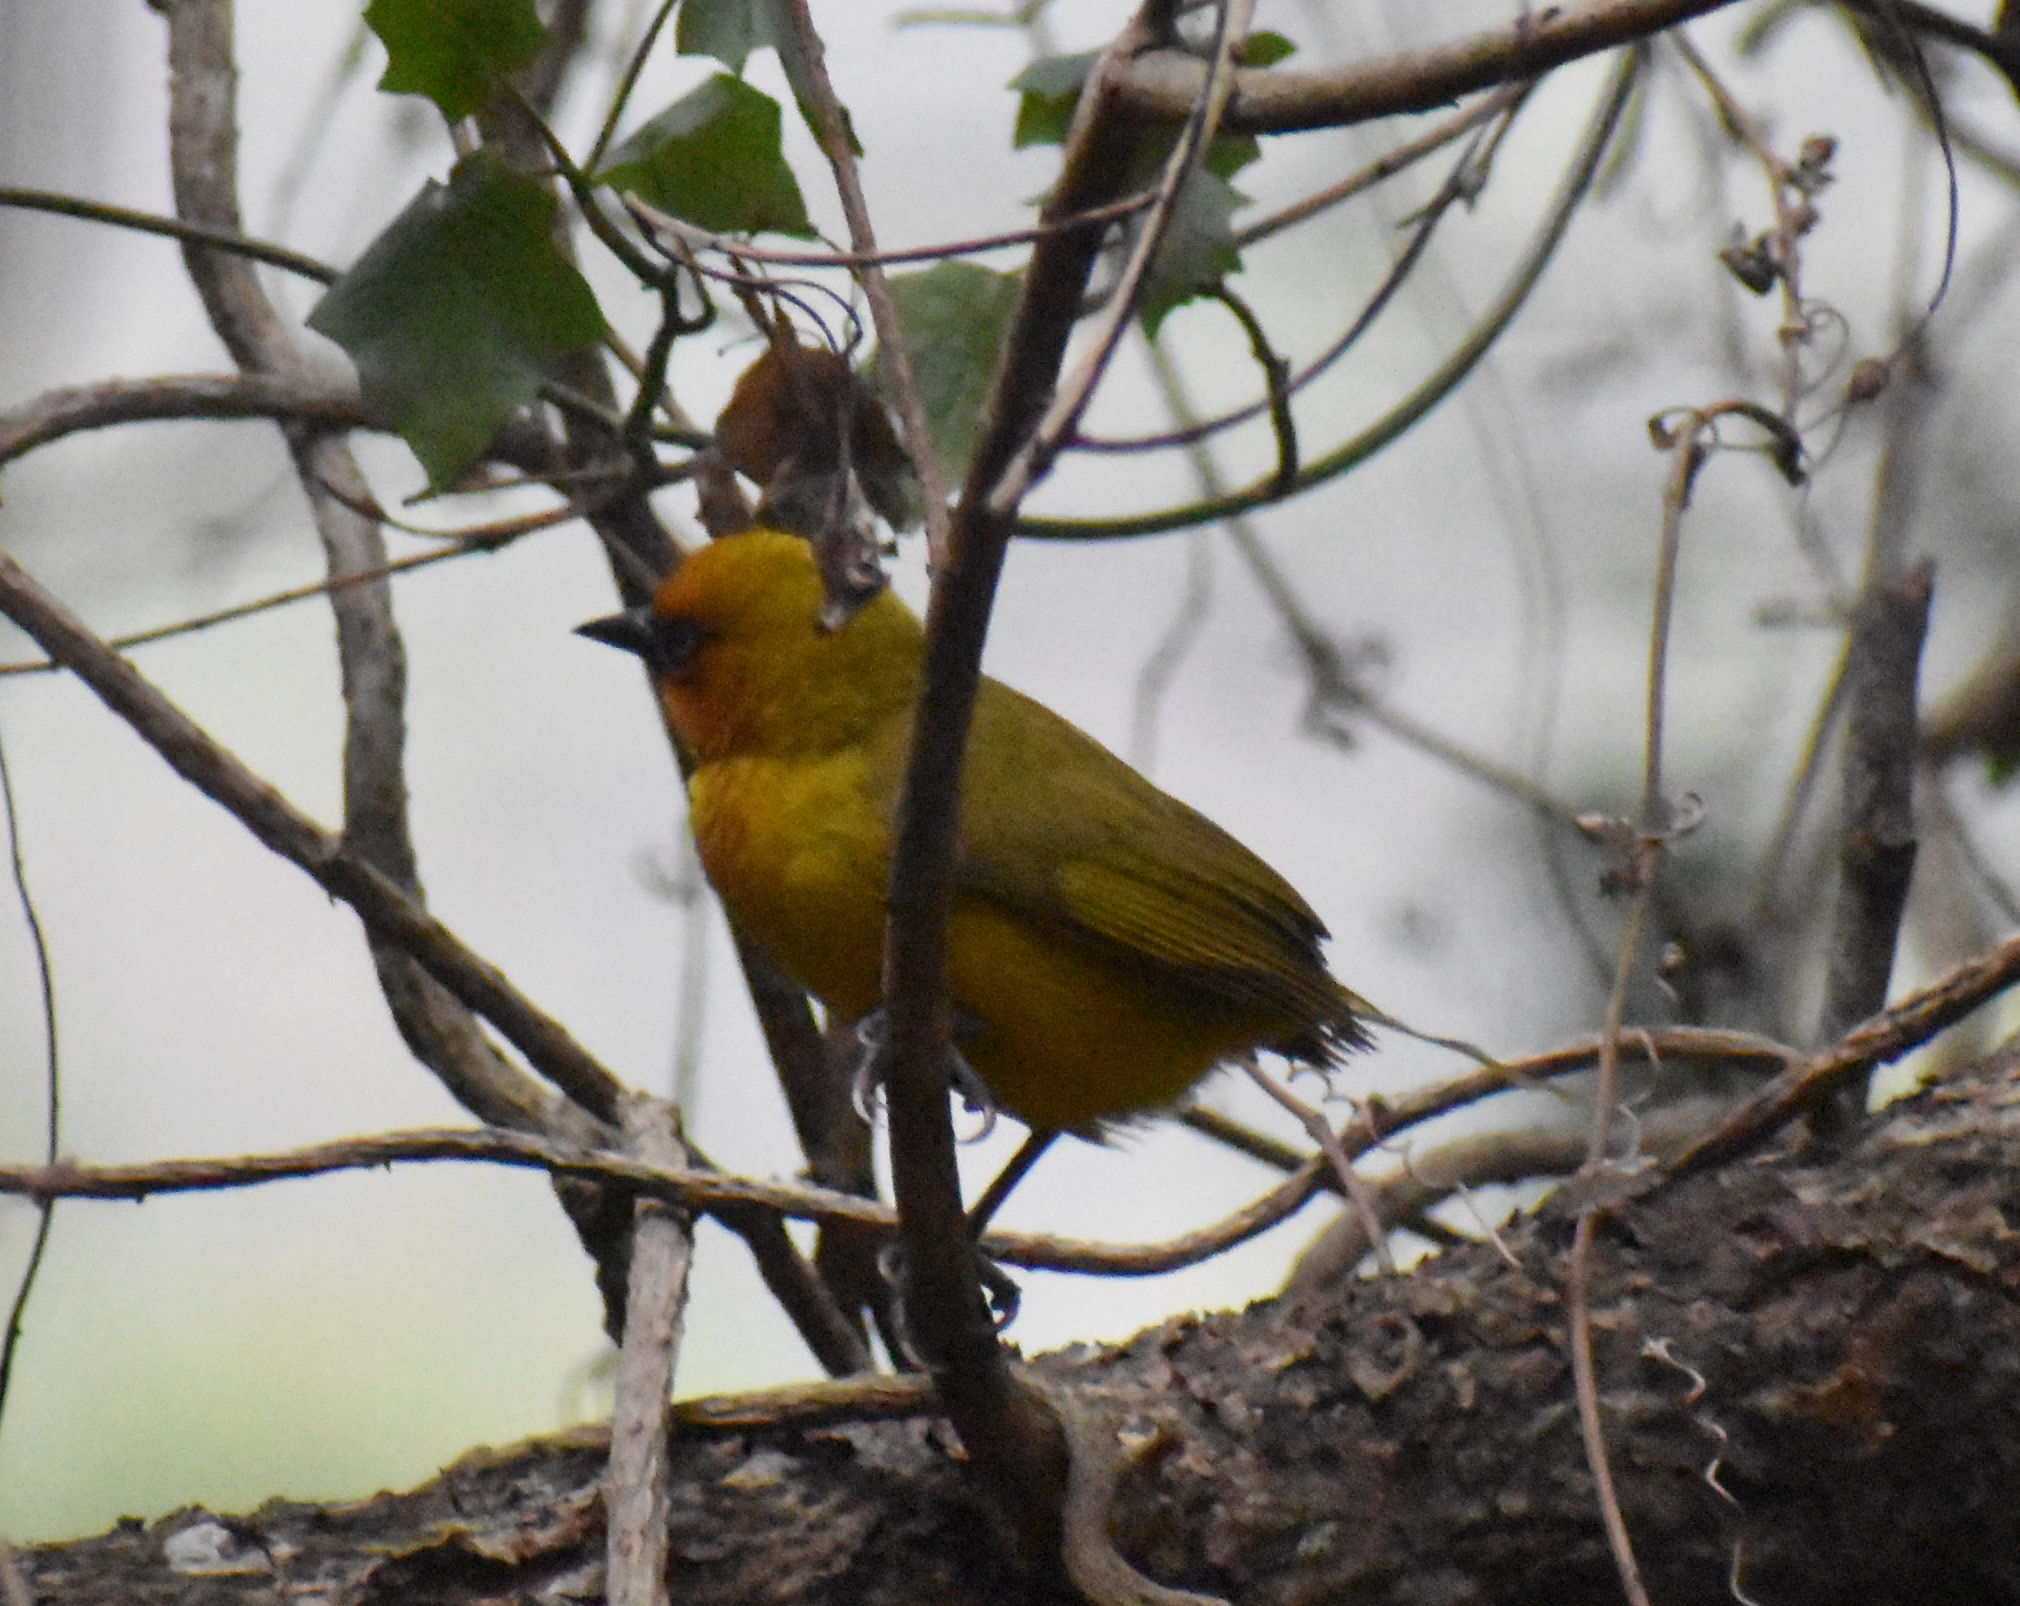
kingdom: Animalia
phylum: Chordata
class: Aves
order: Passeriformes
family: Ploceidae
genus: Ploceus
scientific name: Ploceus ocularis
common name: Spectacled weaver
